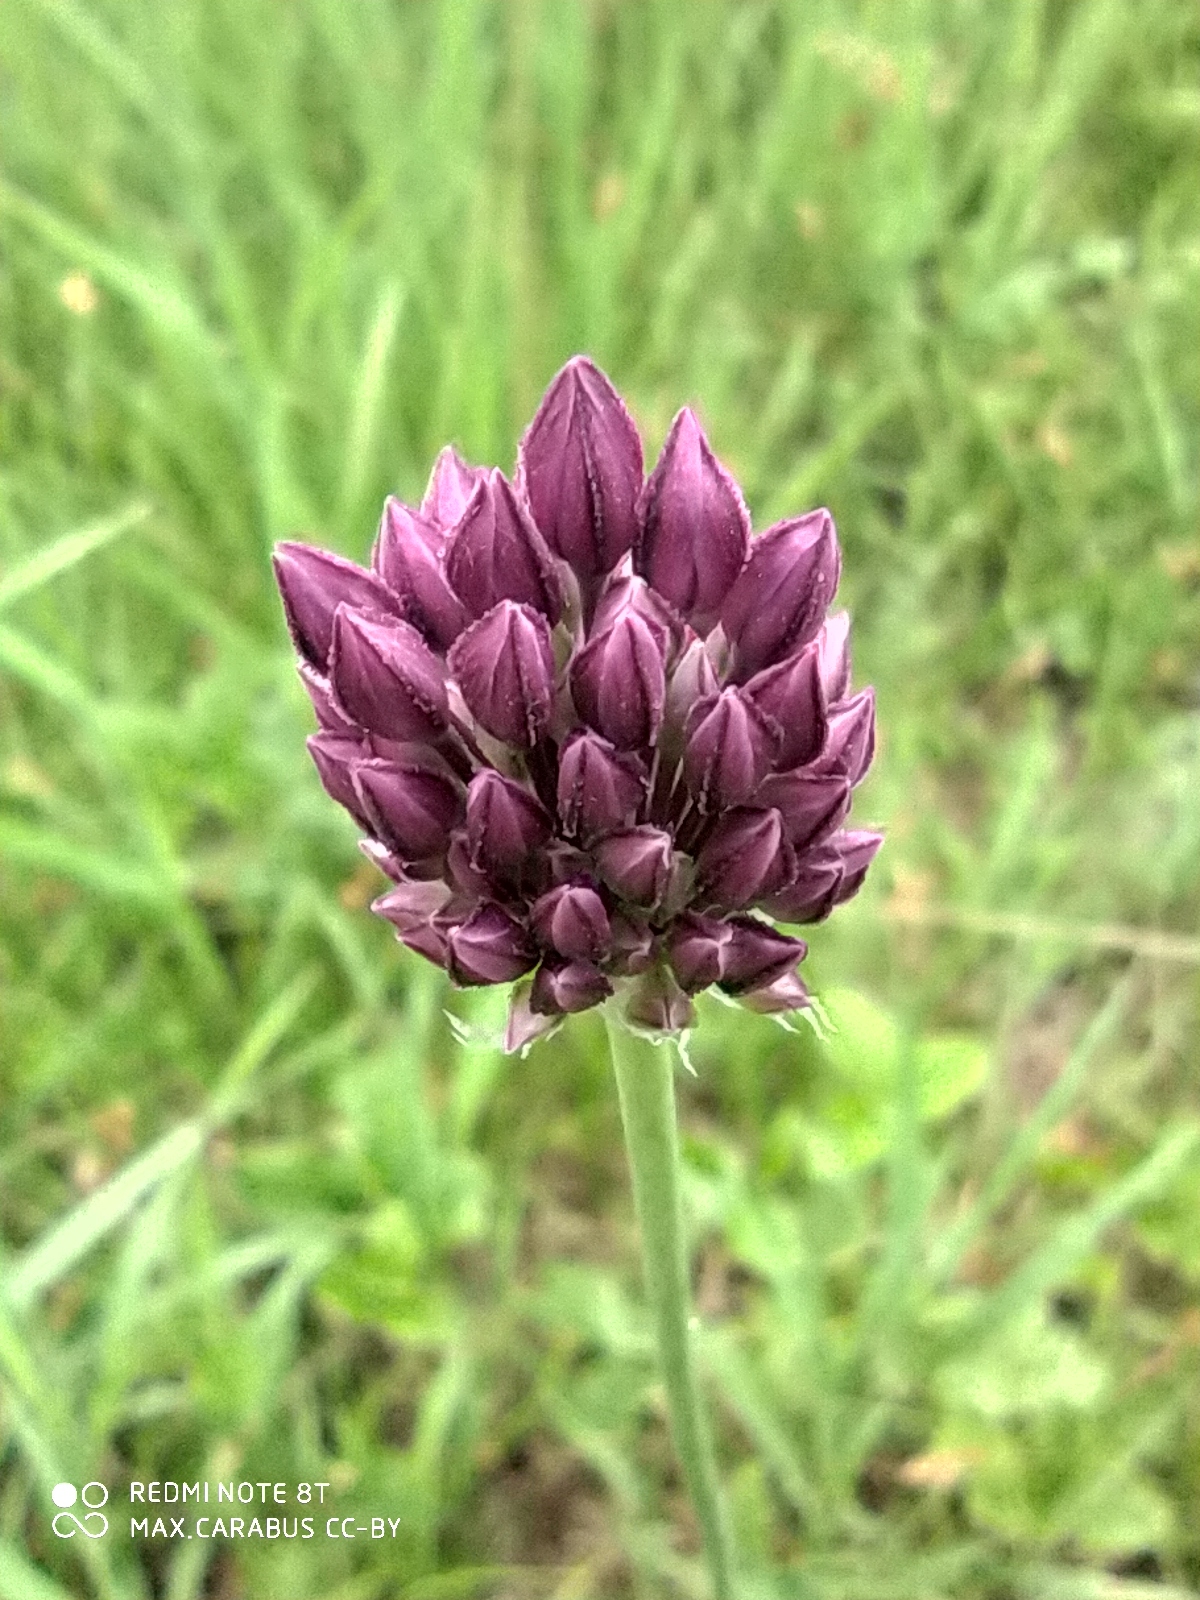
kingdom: Plantae
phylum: Tracheophyta
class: Liliopsida
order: Asparagales
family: Amaryllidaceae
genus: Allium
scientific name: Allium rotundum
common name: Sand leek
